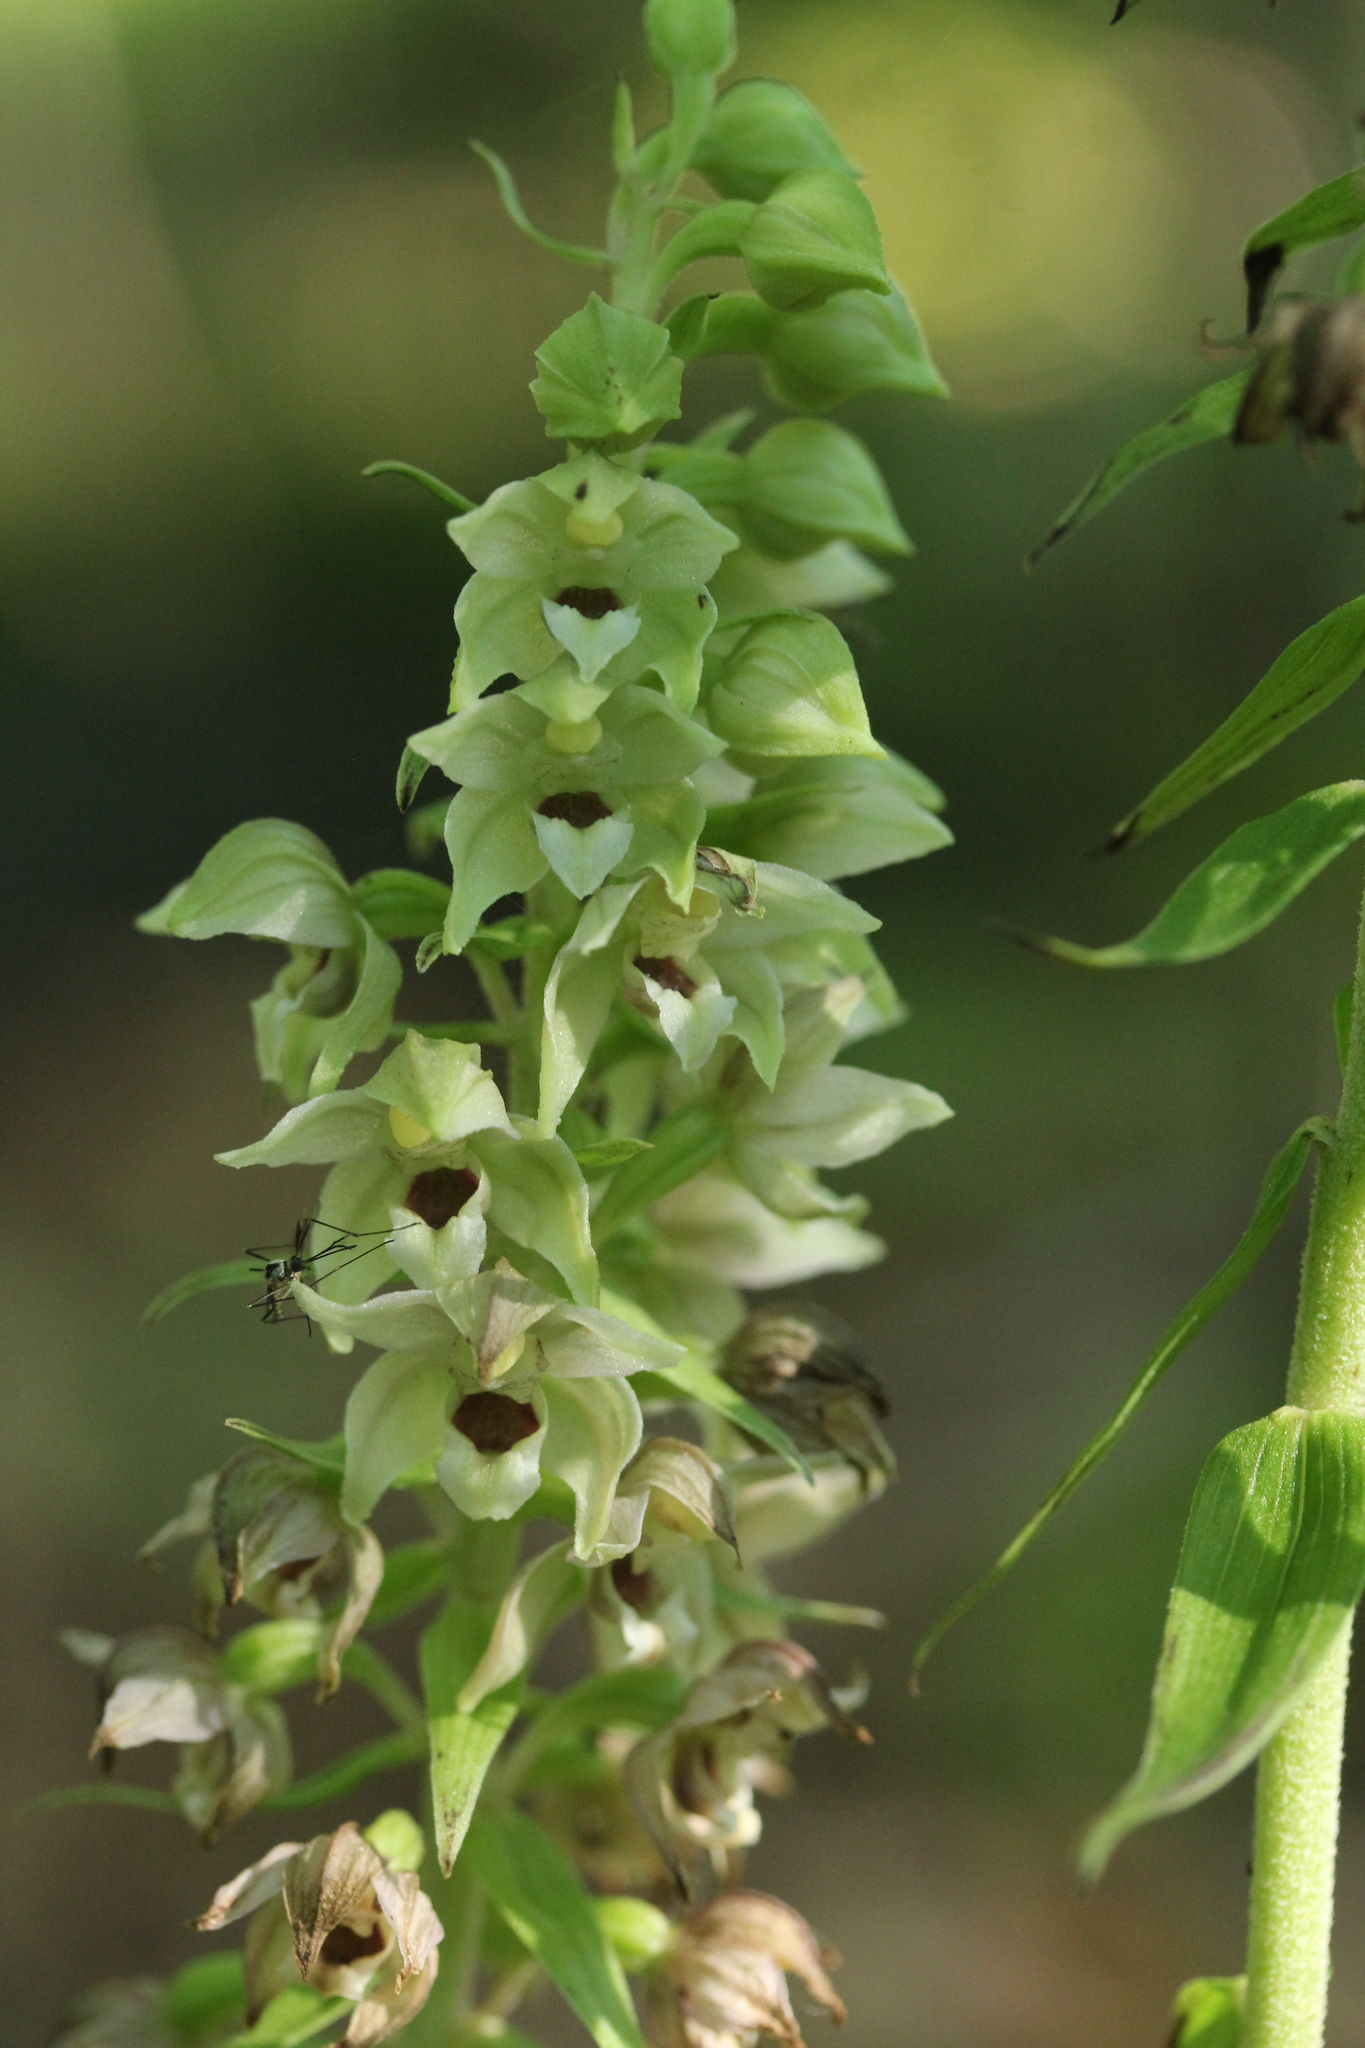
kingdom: Plantae
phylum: Tracheophyta
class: Liliopsida
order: Asparagales
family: Orchidaceae
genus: Epipactis
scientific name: Epipactis helleborine
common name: Broad-leaved helleborine
